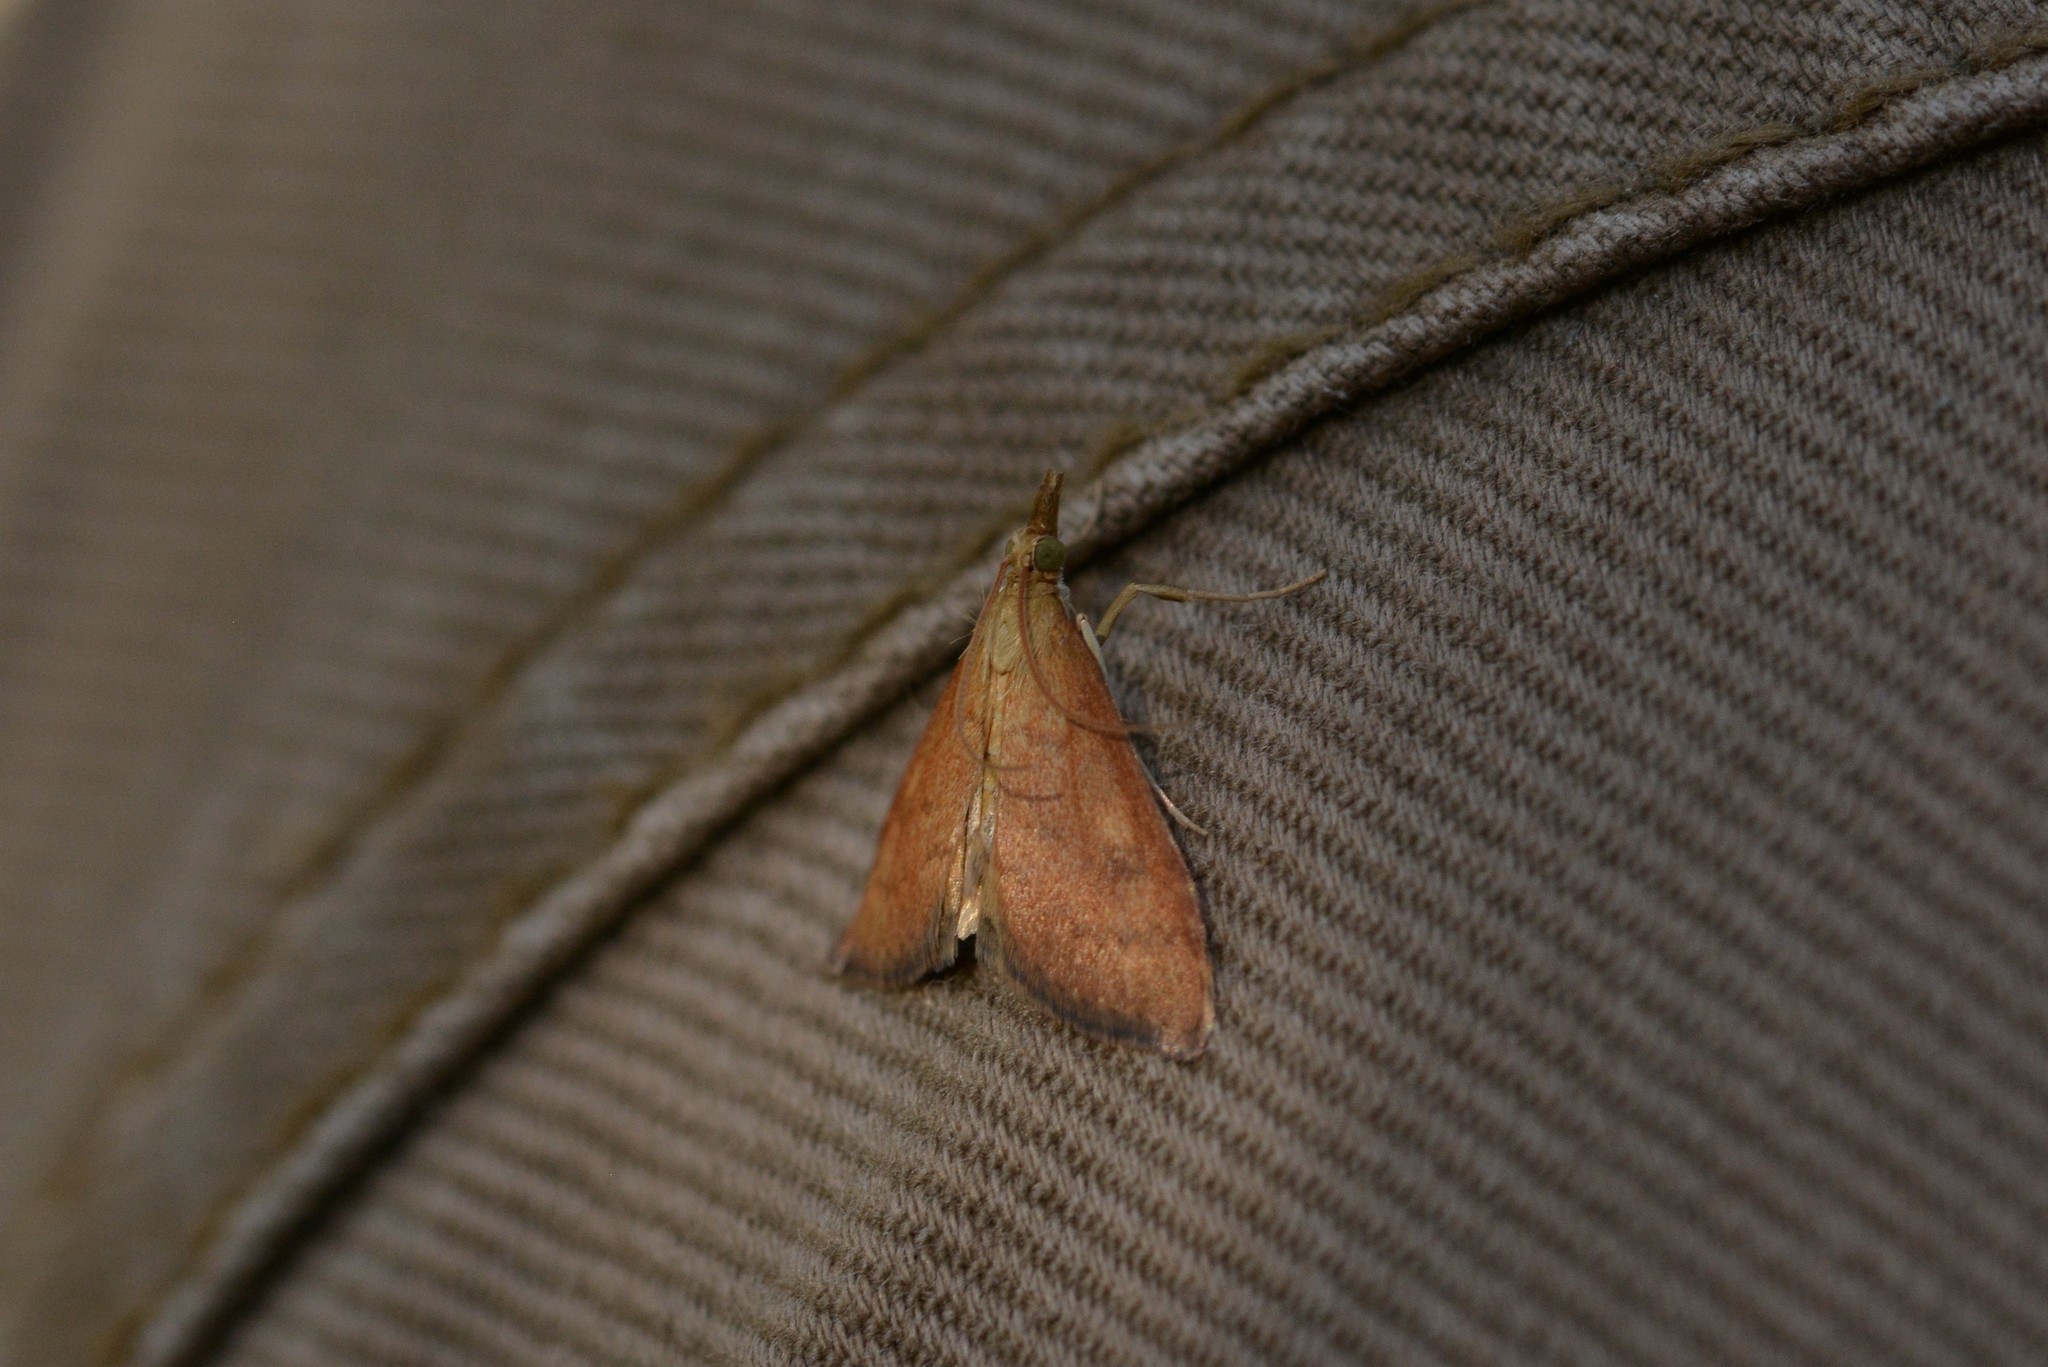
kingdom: Animalia
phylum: Arthropoda
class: Insecta
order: Lepidoptera
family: Crambidae
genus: Udea
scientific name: Udea Mnesictena flavidalis
